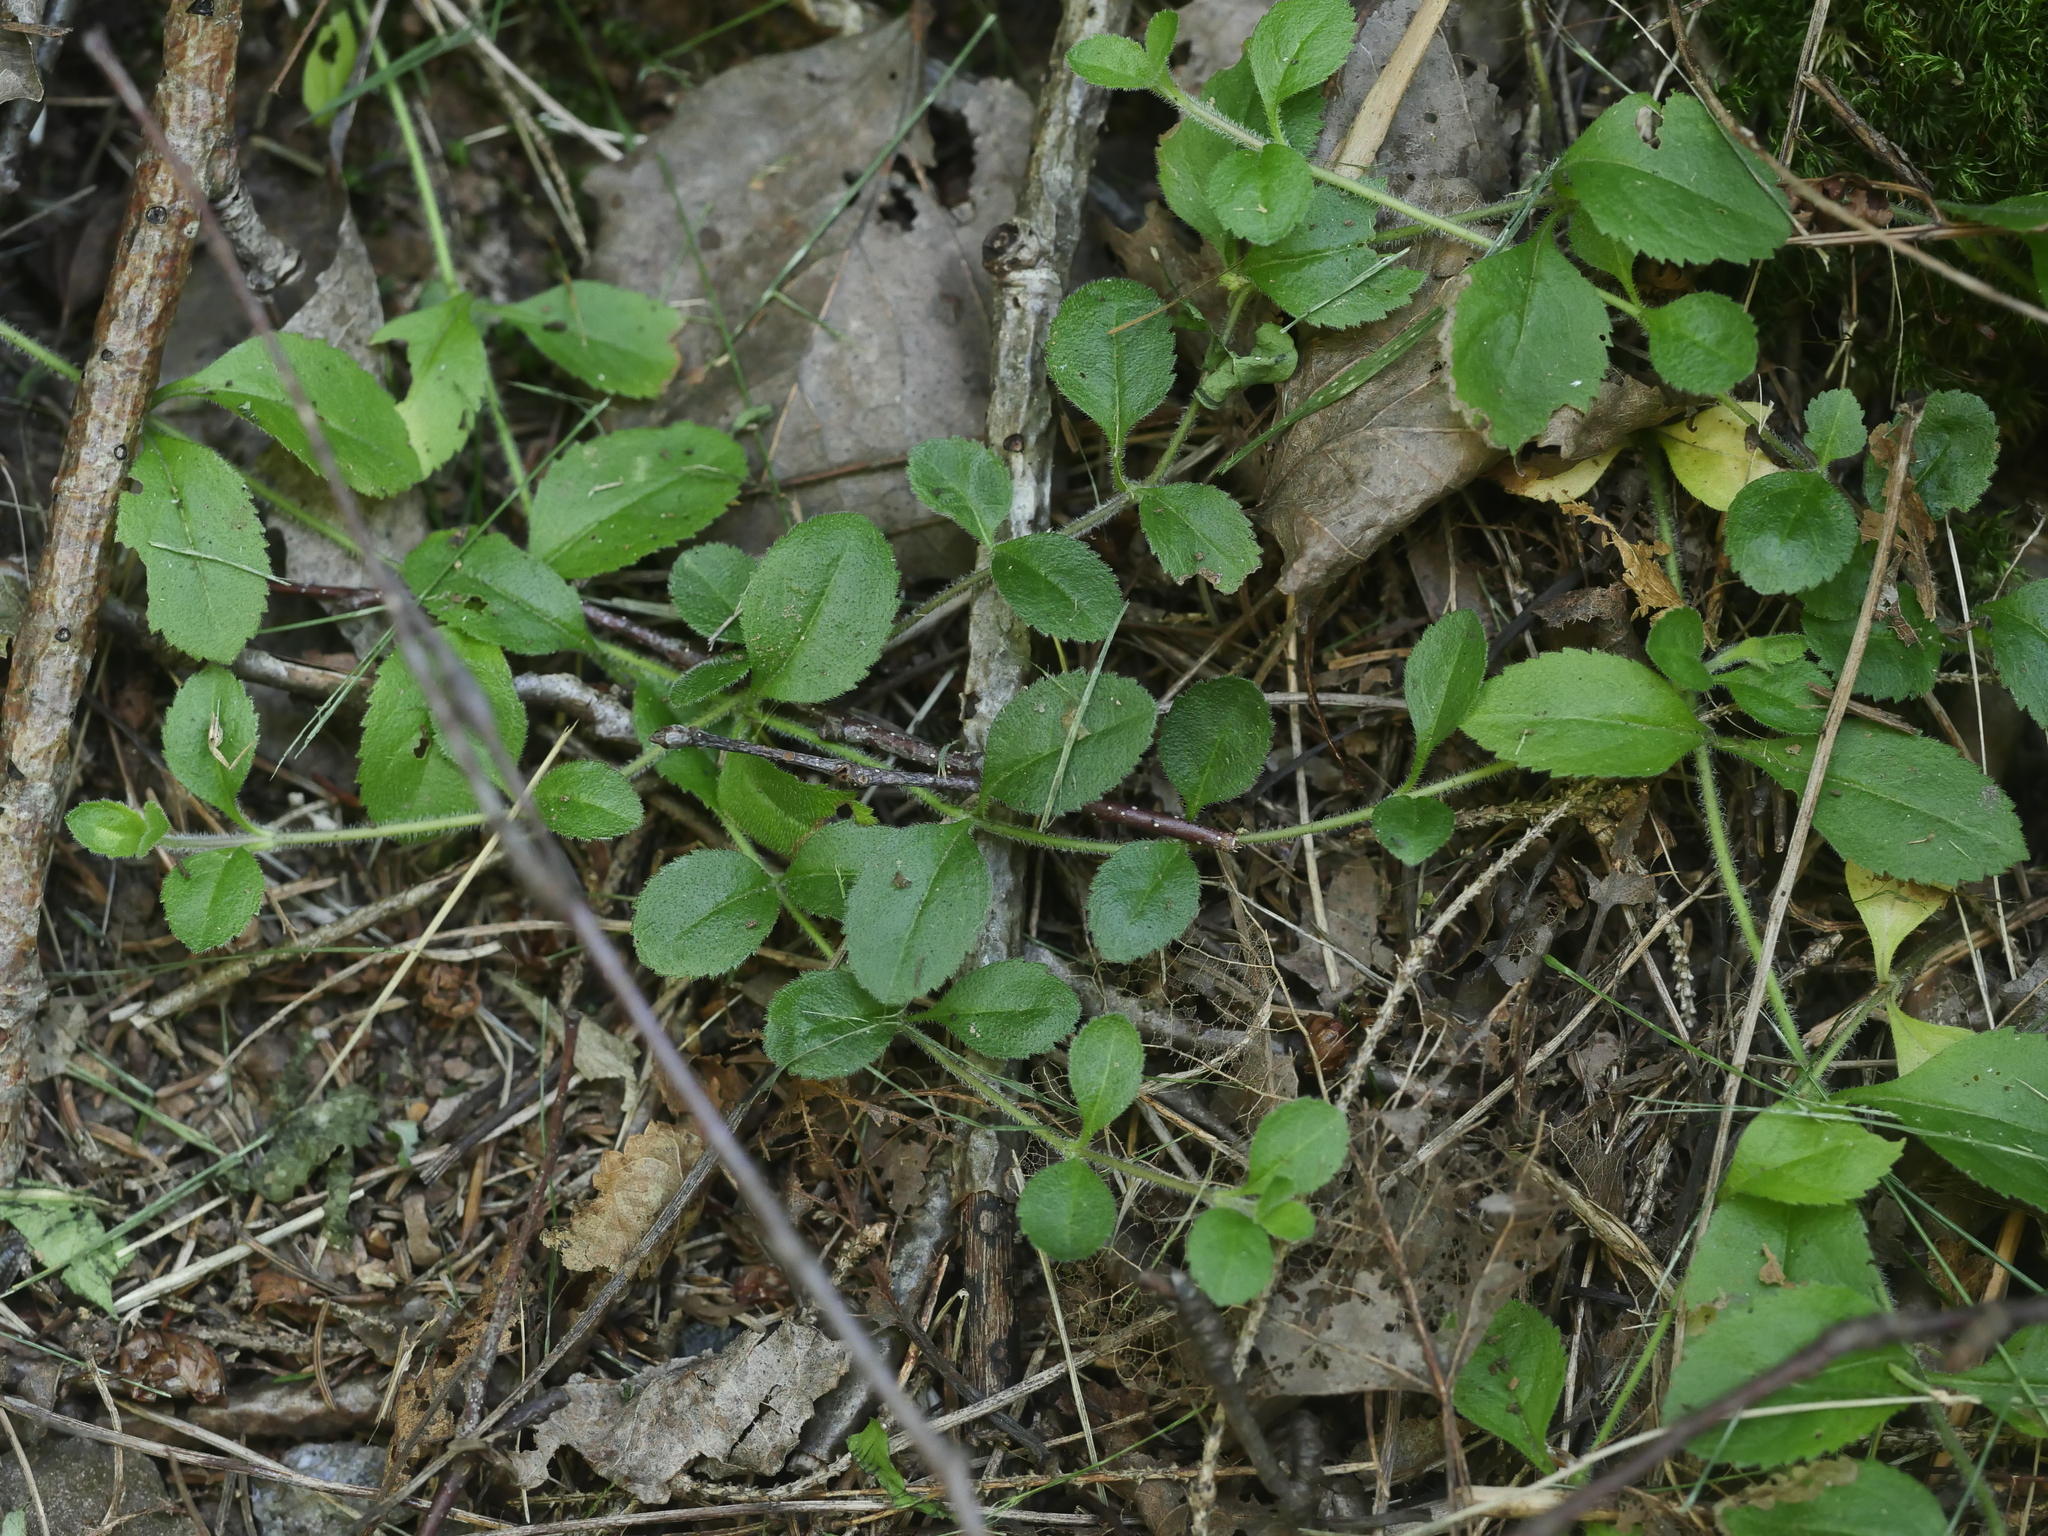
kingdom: Plantae
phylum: Tracheophyta
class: Magnoliopsida
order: Lamiales
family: Plantaginaceae
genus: Veronica
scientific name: Veronica officinalis
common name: Common speedwell
